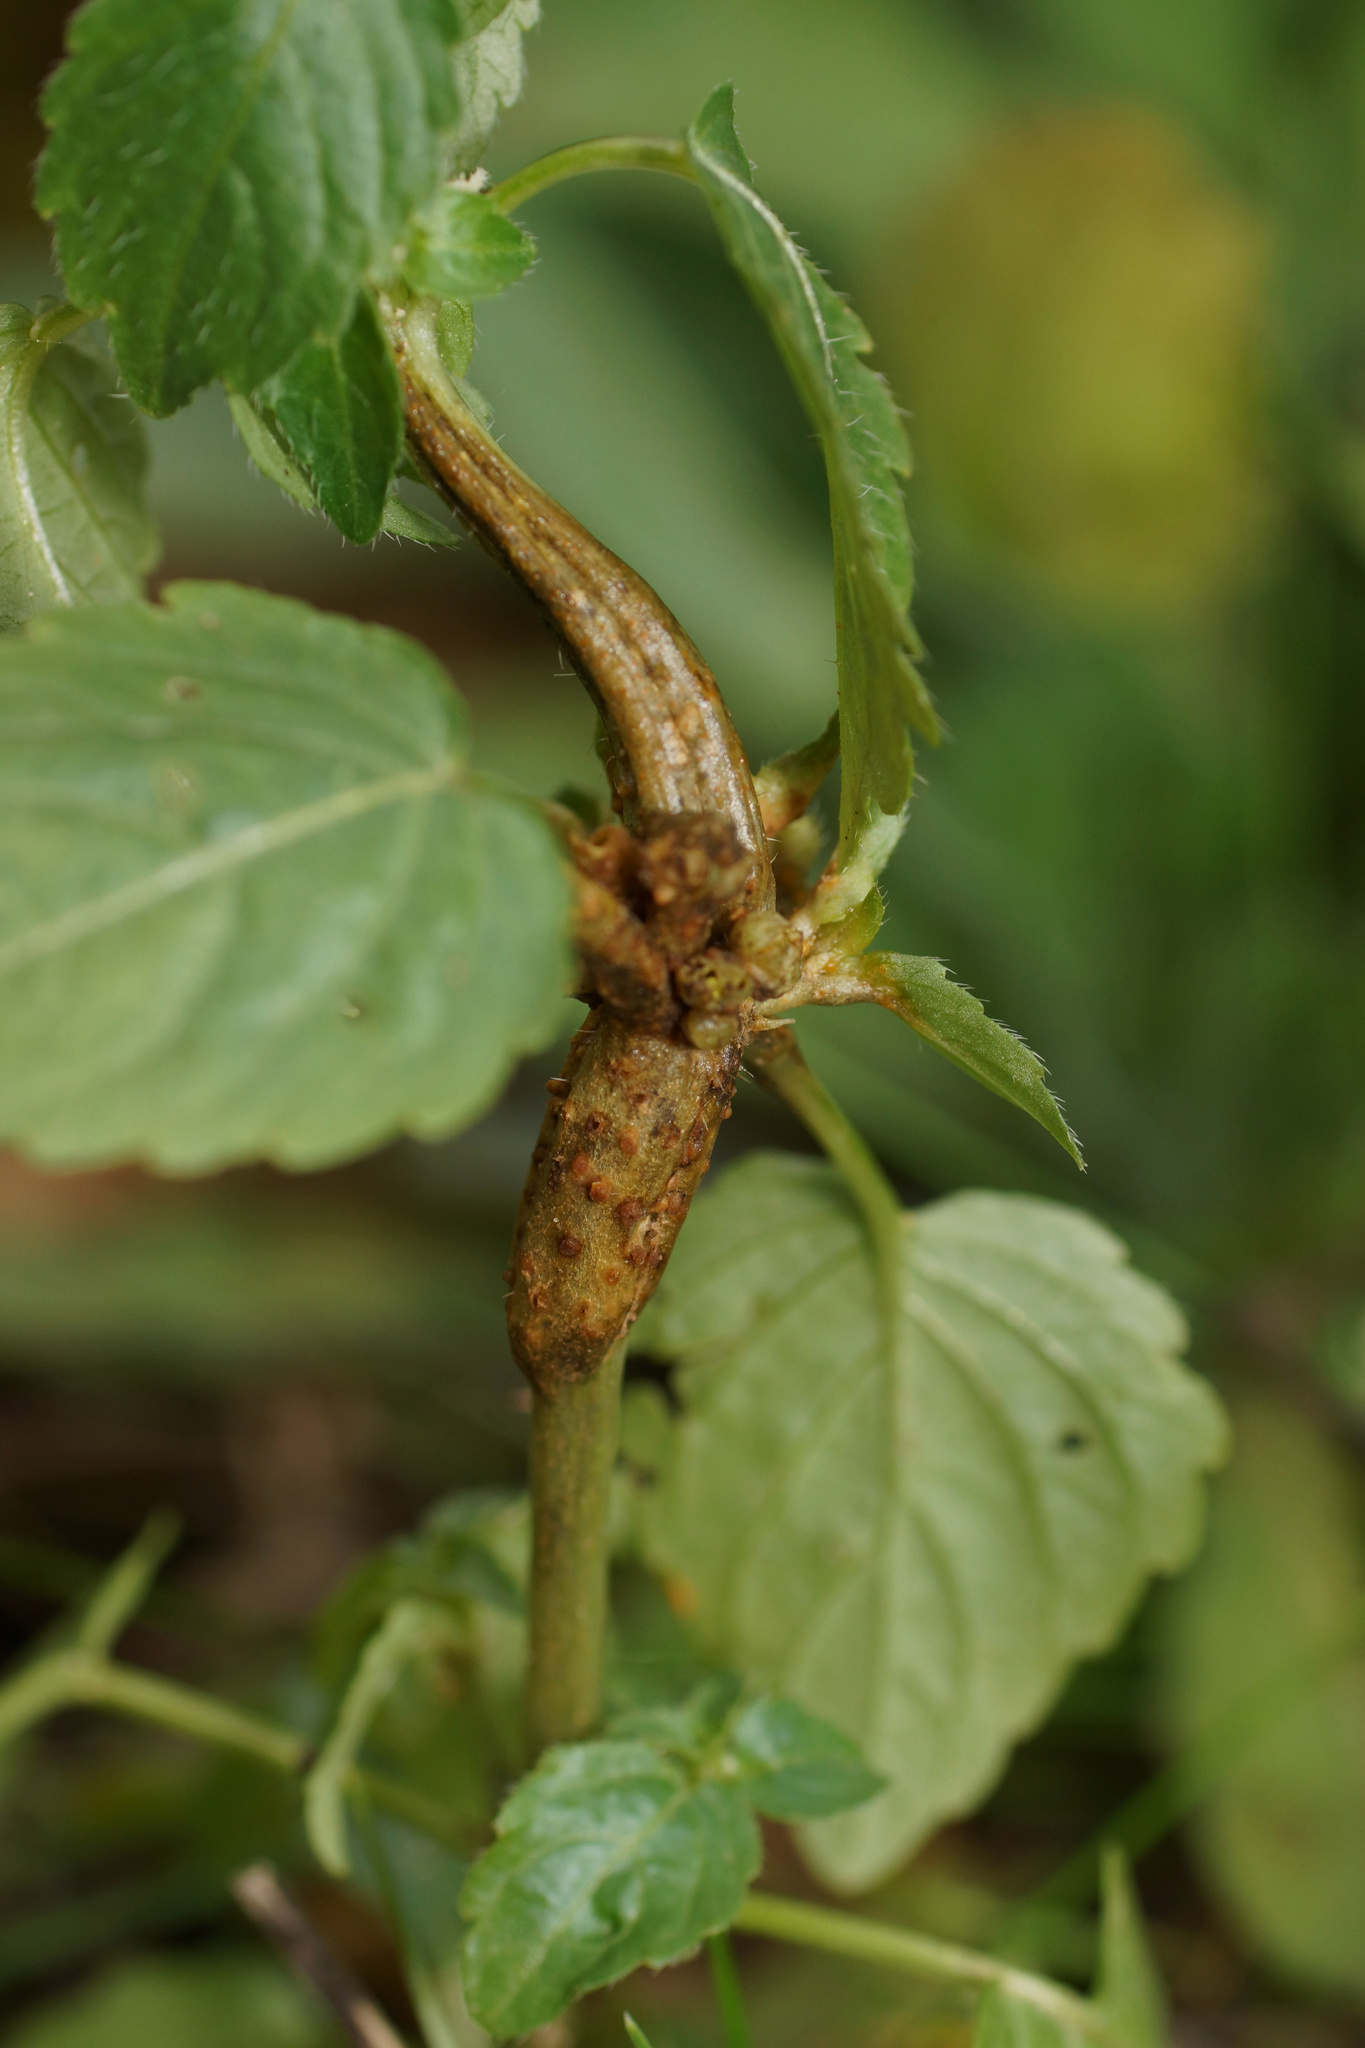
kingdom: Fungi
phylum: Basidiomycota
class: Pucciniomycetes
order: Pucciniales
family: Melampsoraceae
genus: Melampsora
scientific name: Melampsora pulcherrima
